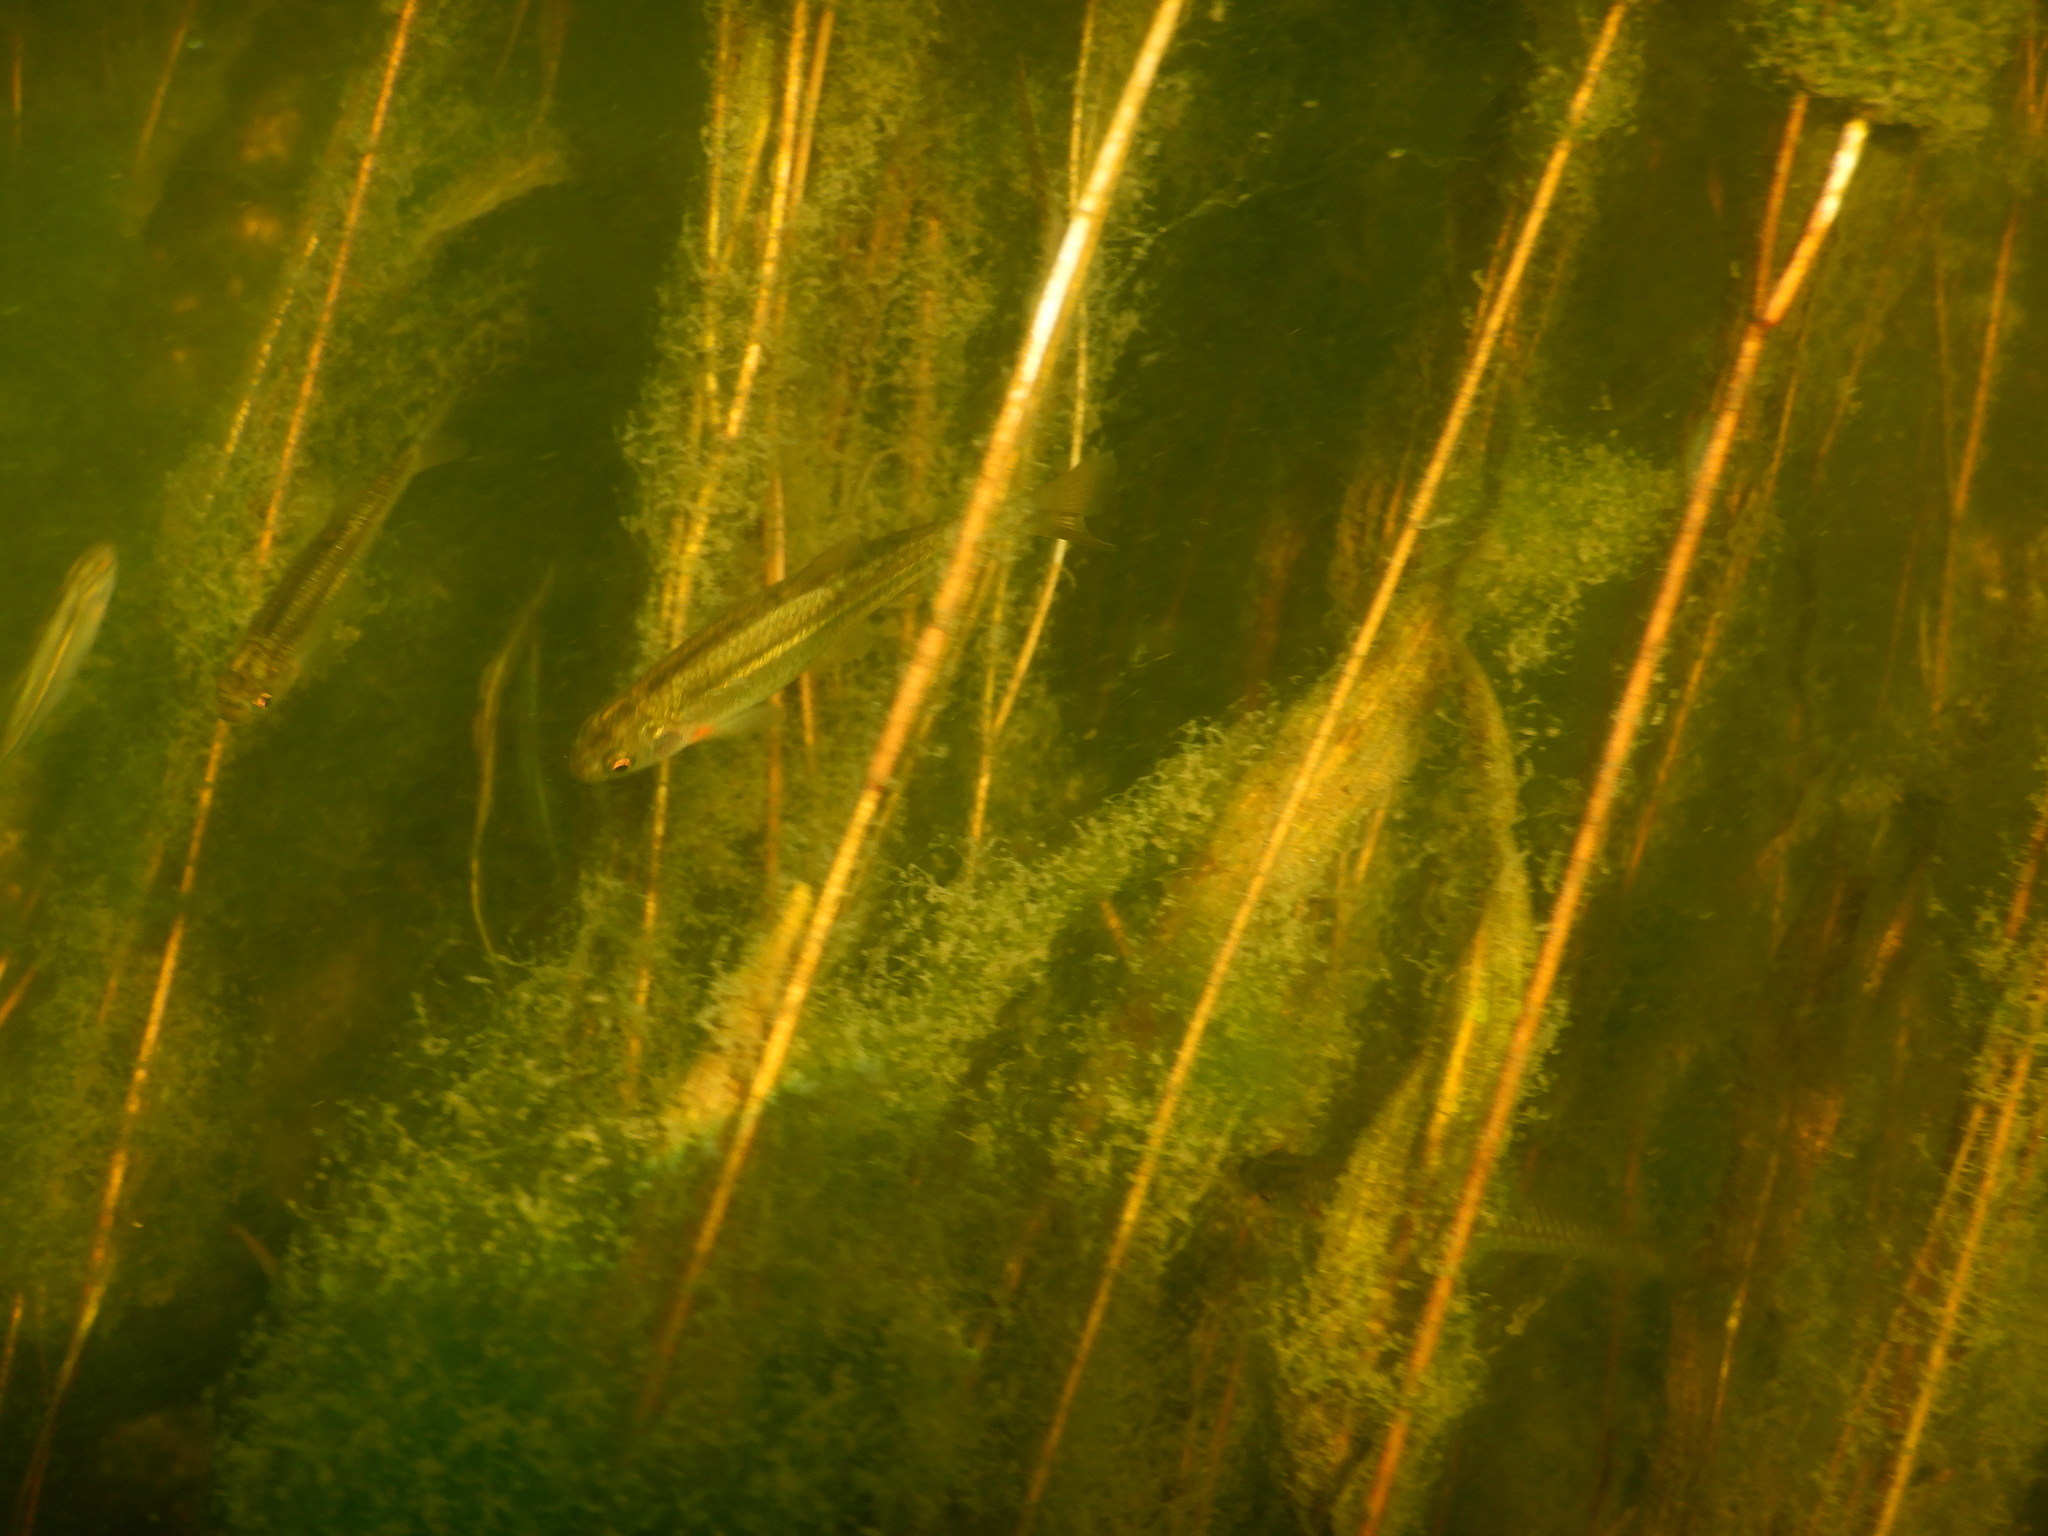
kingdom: Animalia
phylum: Chordata
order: Cypriniformes
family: Cyprinidae
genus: Achondrostoma
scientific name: Achondrostoma oligolepis
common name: Ruivaco
